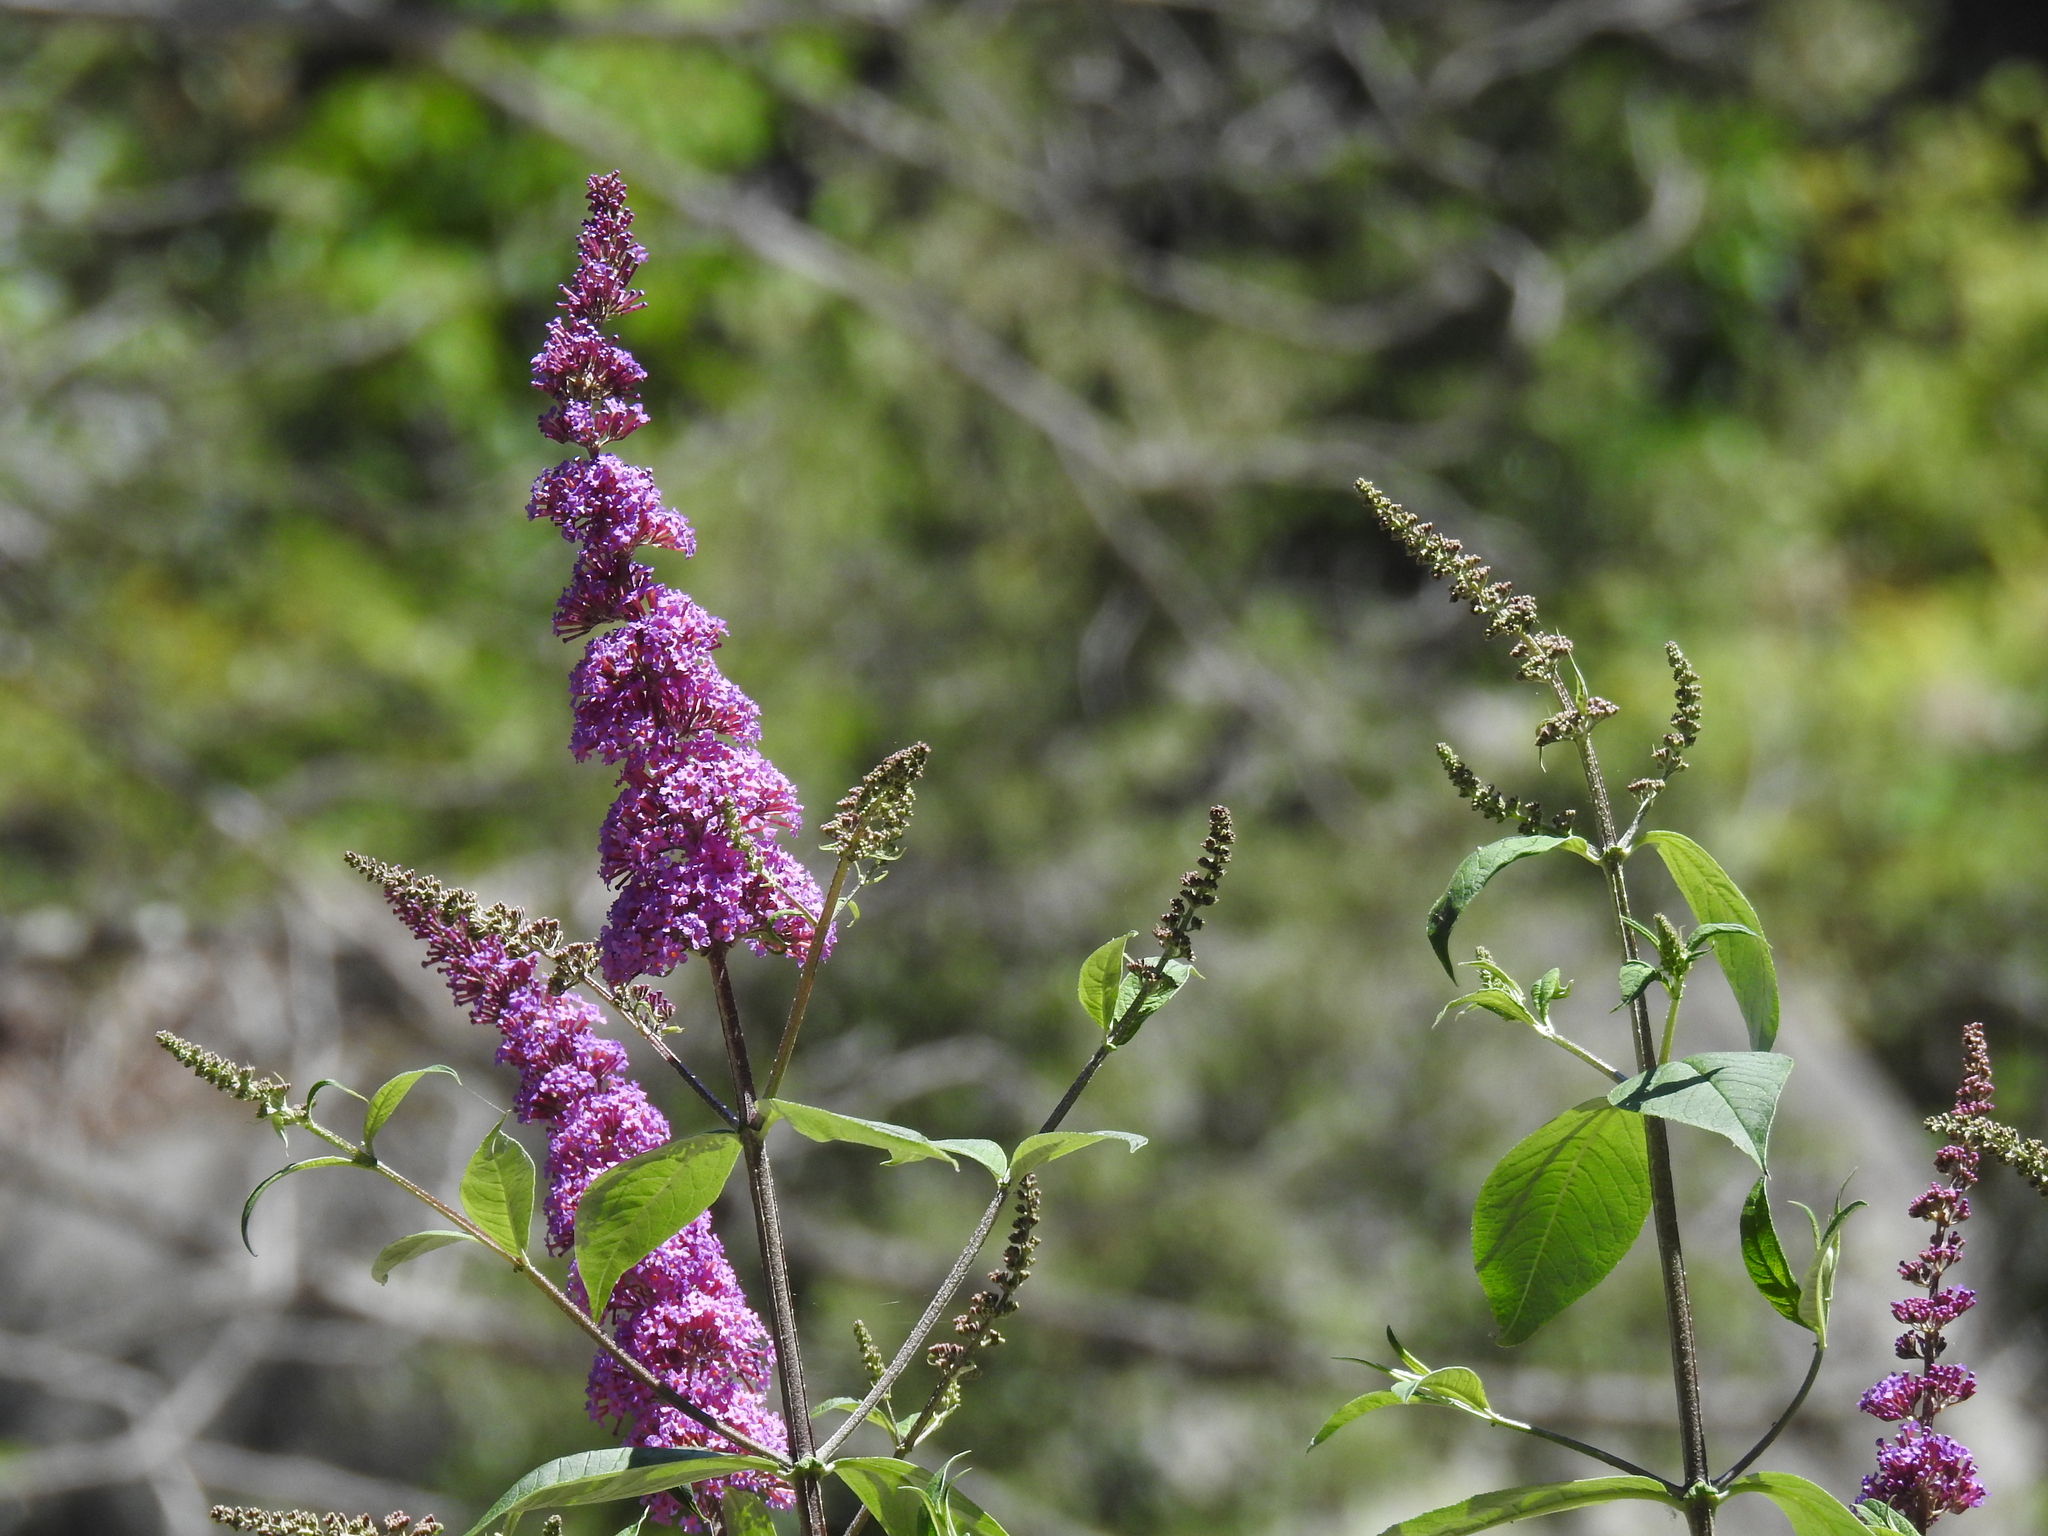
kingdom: Plantae
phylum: Tracheophyta
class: Magnoliopsida
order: Lamiales
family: Scrophulariaceae
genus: Buddleja
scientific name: Buddleja davidii
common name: Butterfly-bush
